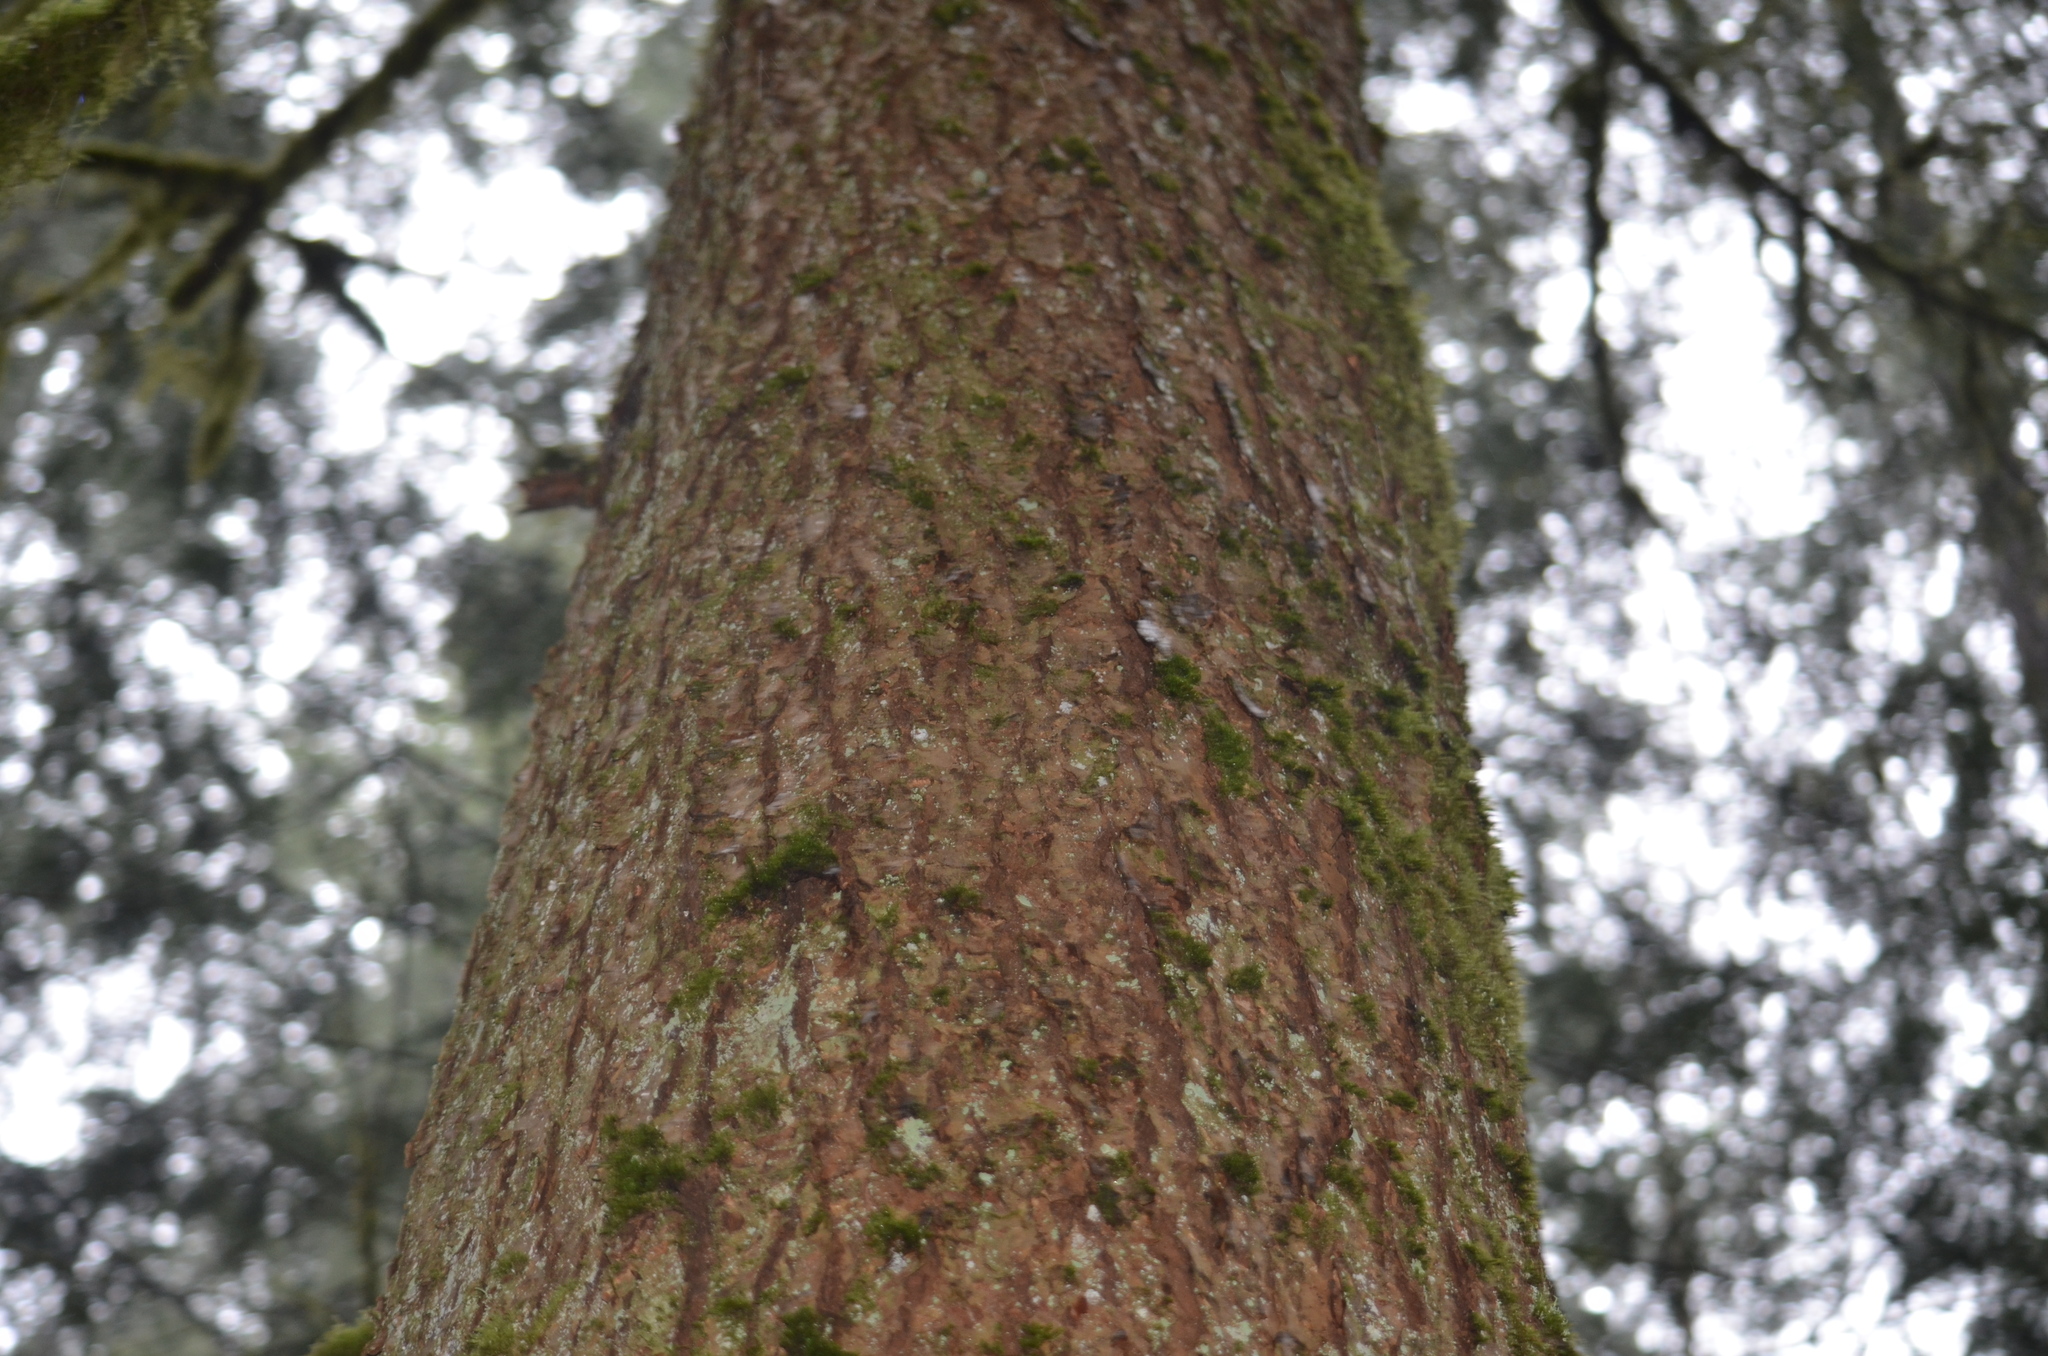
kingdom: Plantae
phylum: Tracheophyta
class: Pinopsida
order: Pinales
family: Cupressaceae
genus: Thuja
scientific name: Thuja plicata
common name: Western red-cedar
